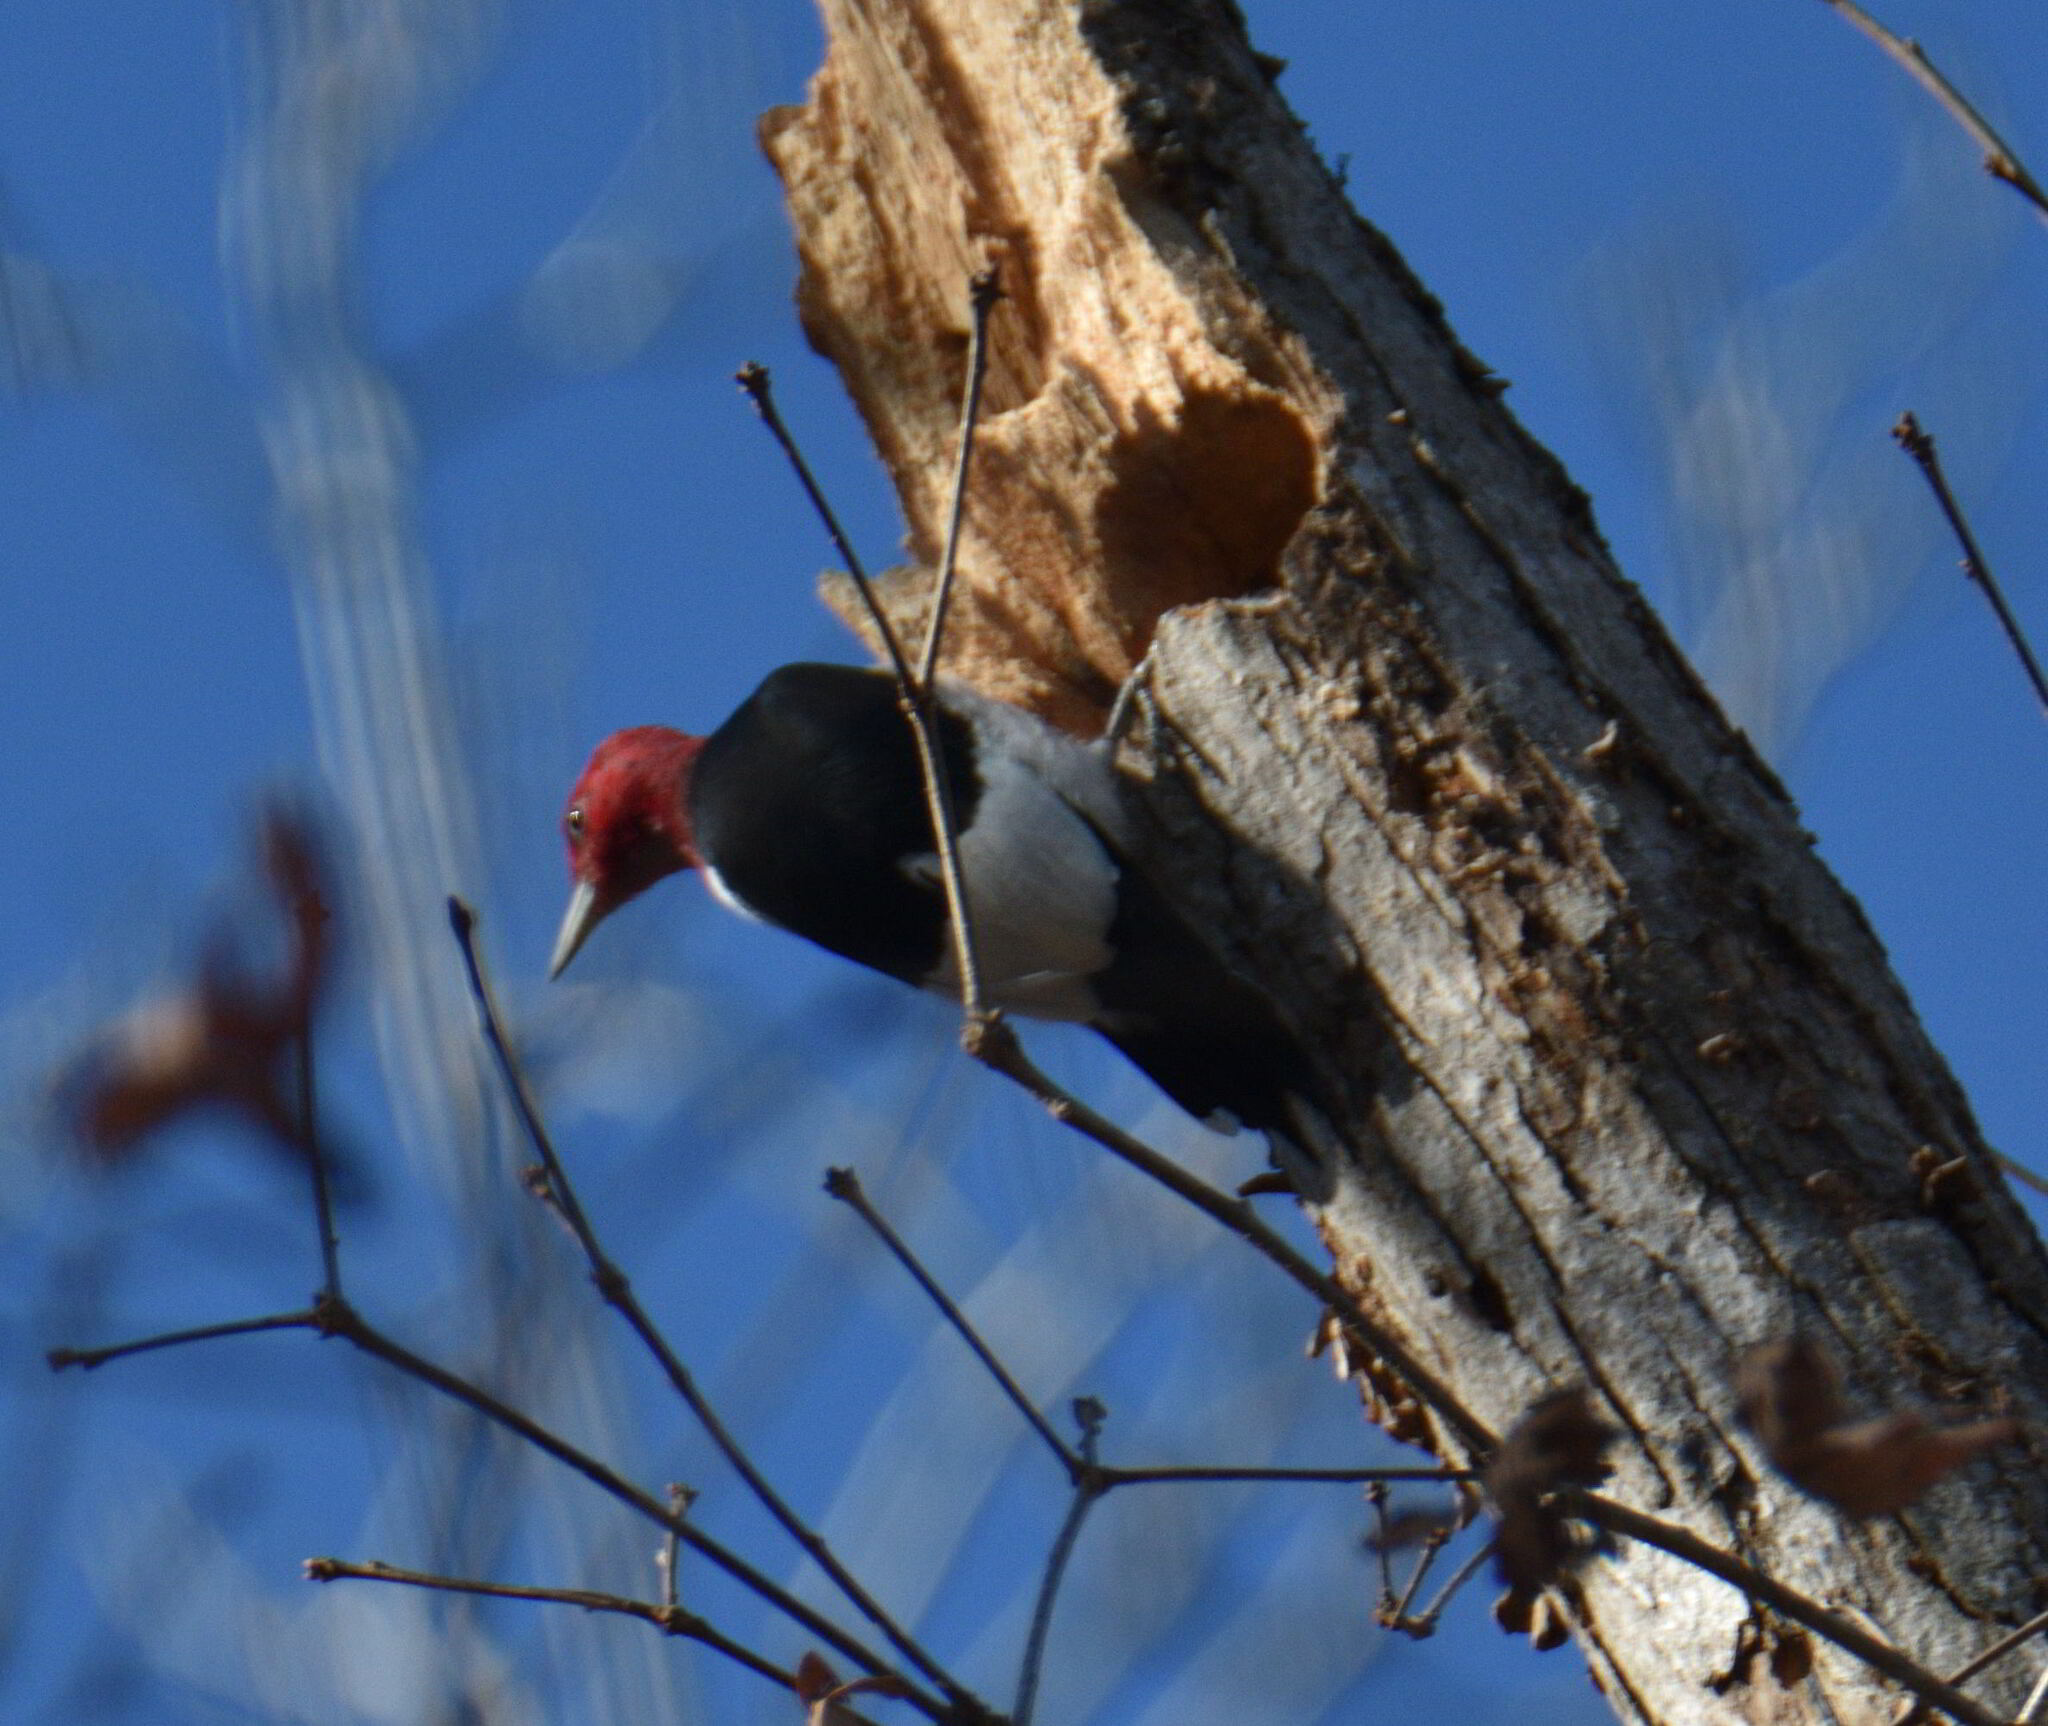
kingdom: Animalia
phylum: Chordata
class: Aves
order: Piciformes
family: Picidae
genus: Melanerpes
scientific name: Melanerpes erythrocephalus
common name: Red-headed woodpecker
